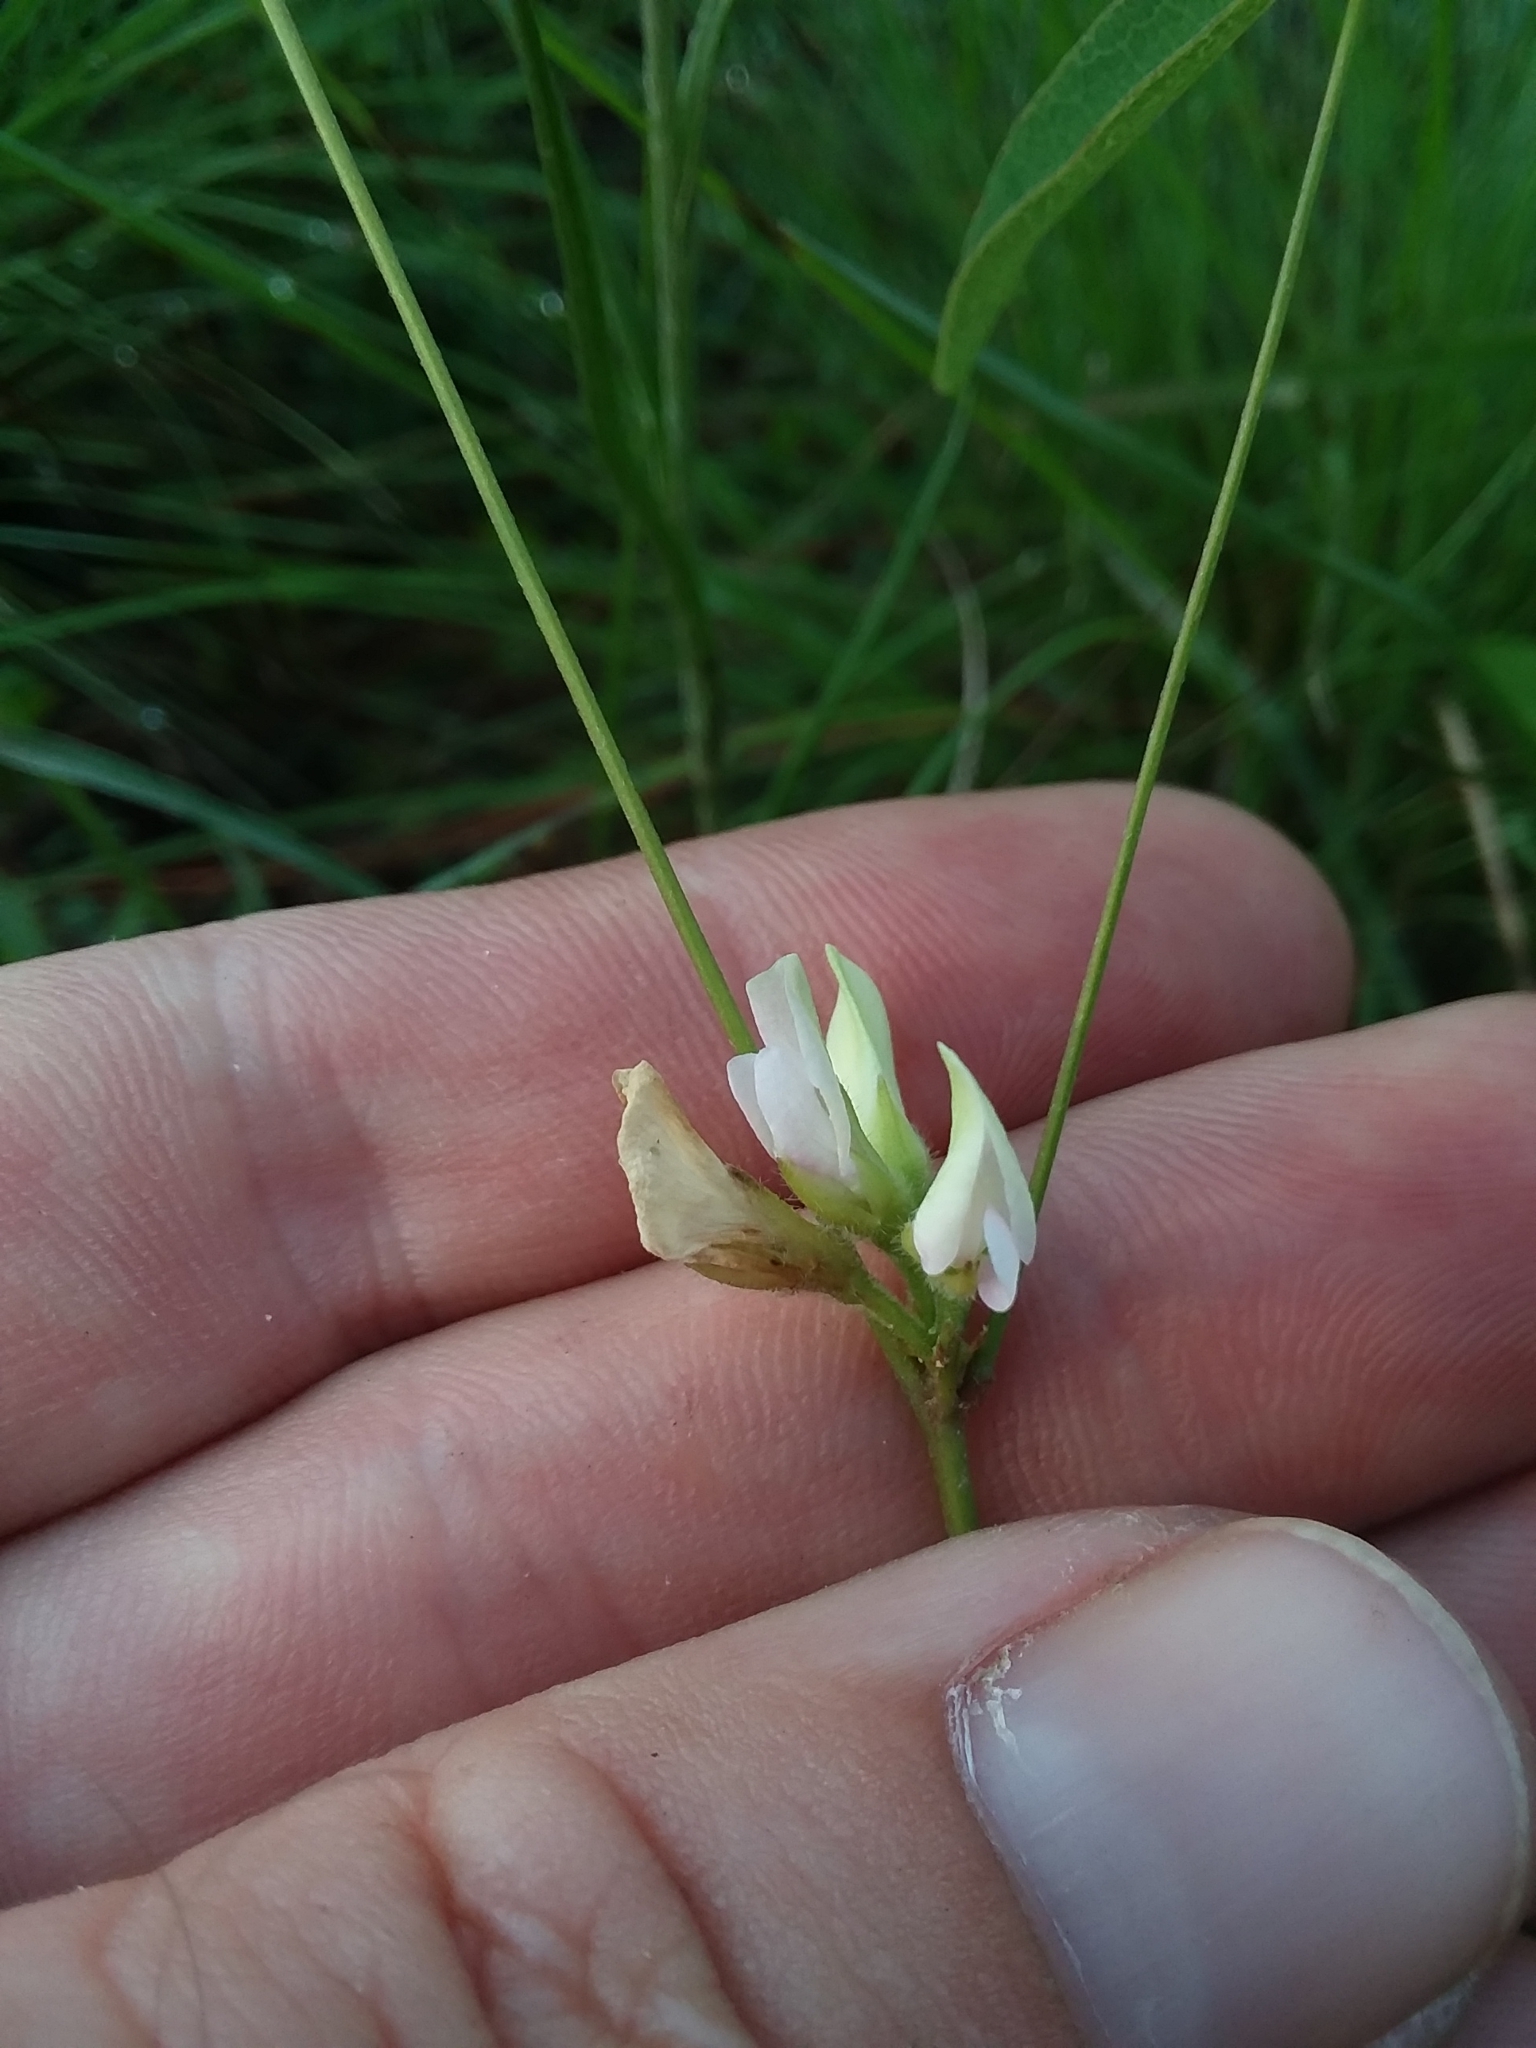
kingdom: Plantae
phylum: Tracheophyta
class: Magnoliopsida
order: Fabales
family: Fabaceae
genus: Galactia
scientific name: Galactia erecta
